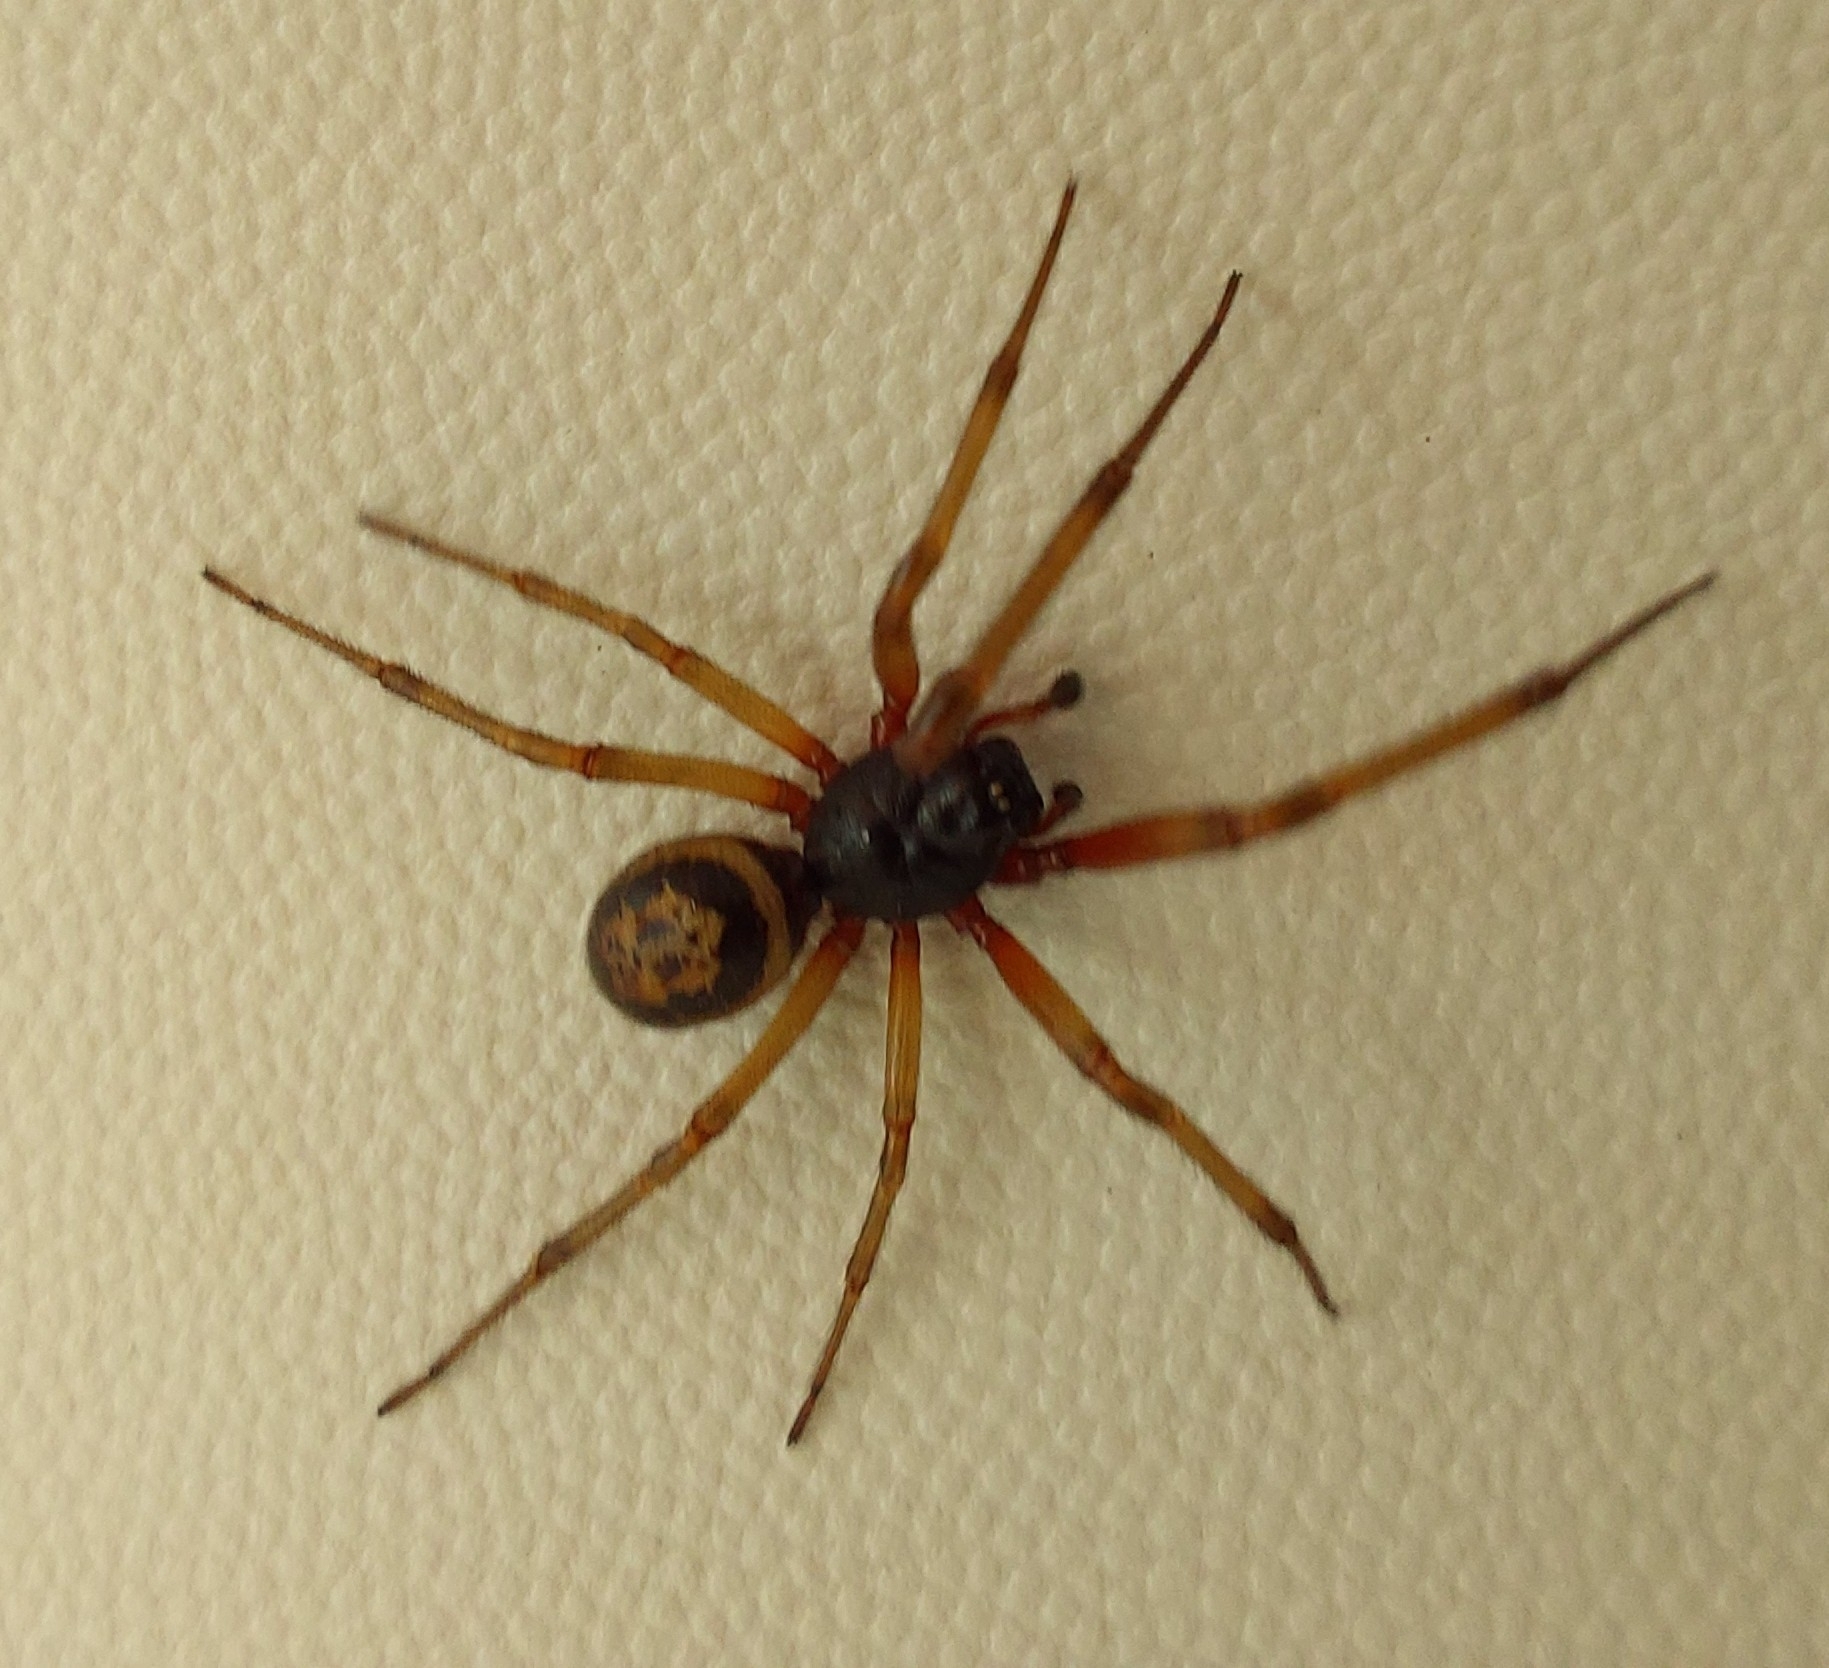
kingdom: Animalia
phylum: Arthropoda
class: Arachnida
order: Araneae
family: Theridiidae
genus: Steatoda
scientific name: Steatoda nobilis
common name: Cobweb weaver
